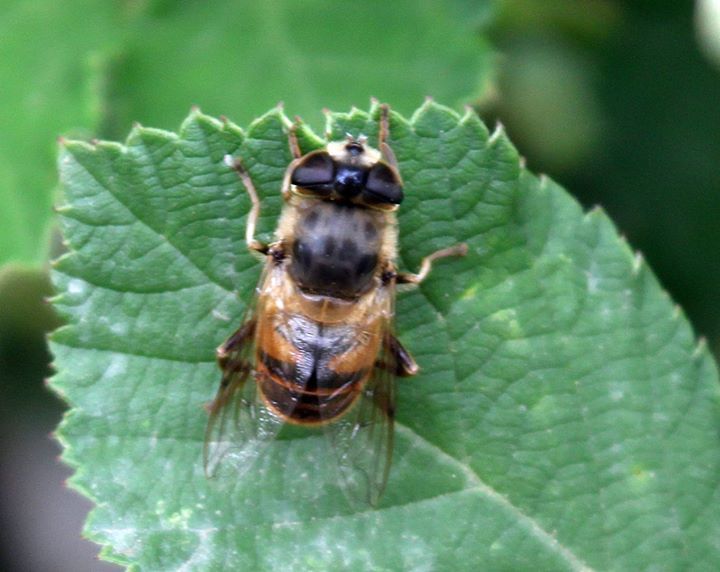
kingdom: Animalia
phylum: Arthropoda
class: Insecta
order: Diptera
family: Syrphidae
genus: Eristalis
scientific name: Eristalis tenax
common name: Drone fly
